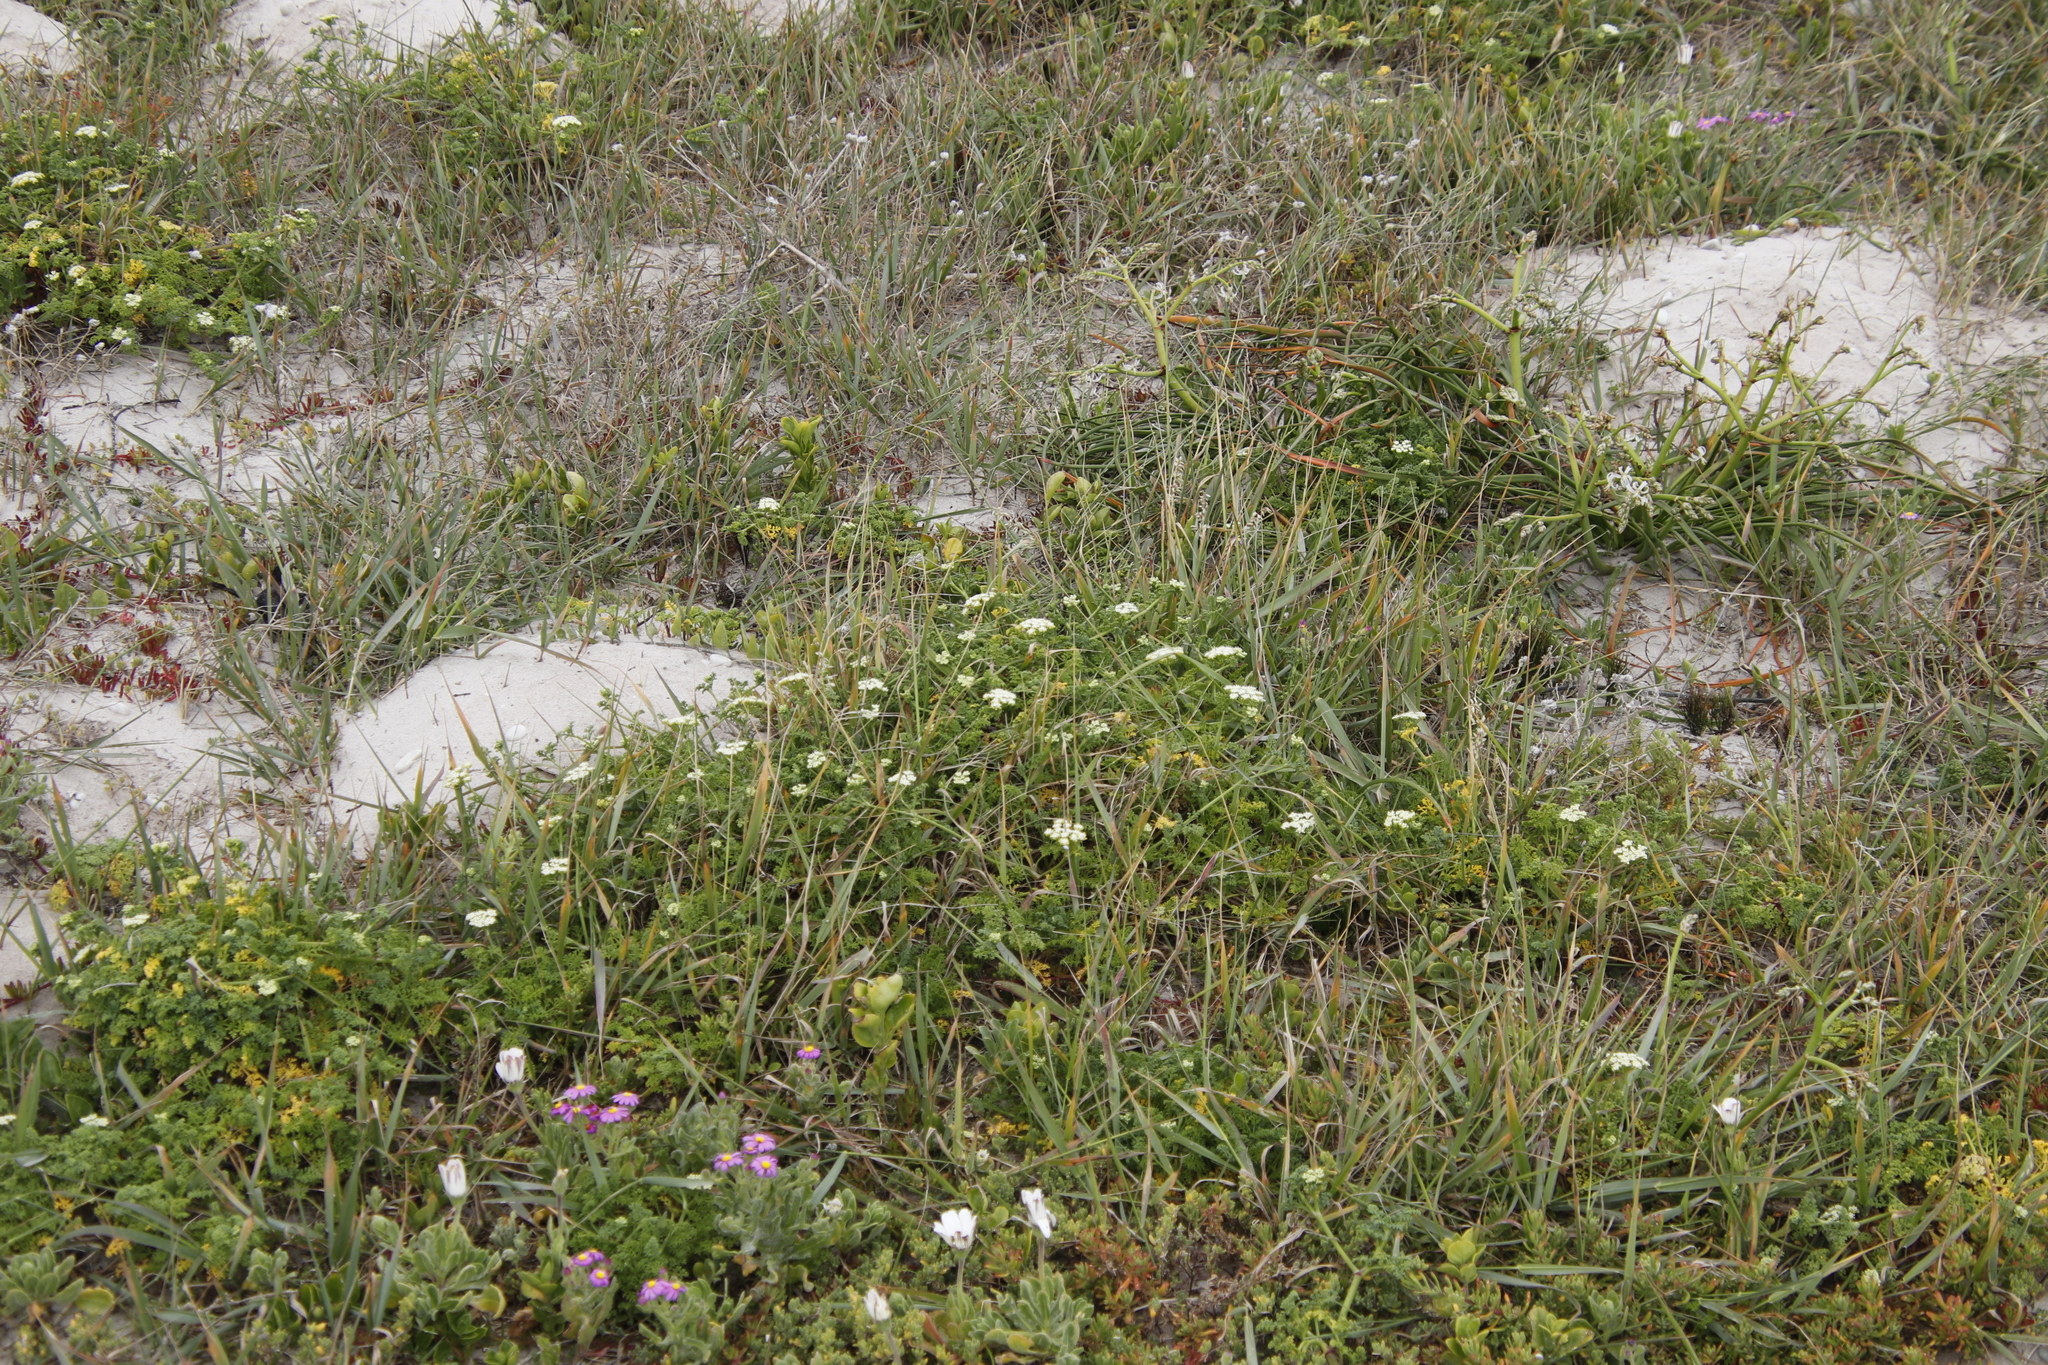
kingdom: Plantae
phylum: Tracheophyta
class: Magnoliopsida
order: Apiales
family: Apiaceae
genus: Dasispermum
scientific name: Dasispermum suffruticosum
